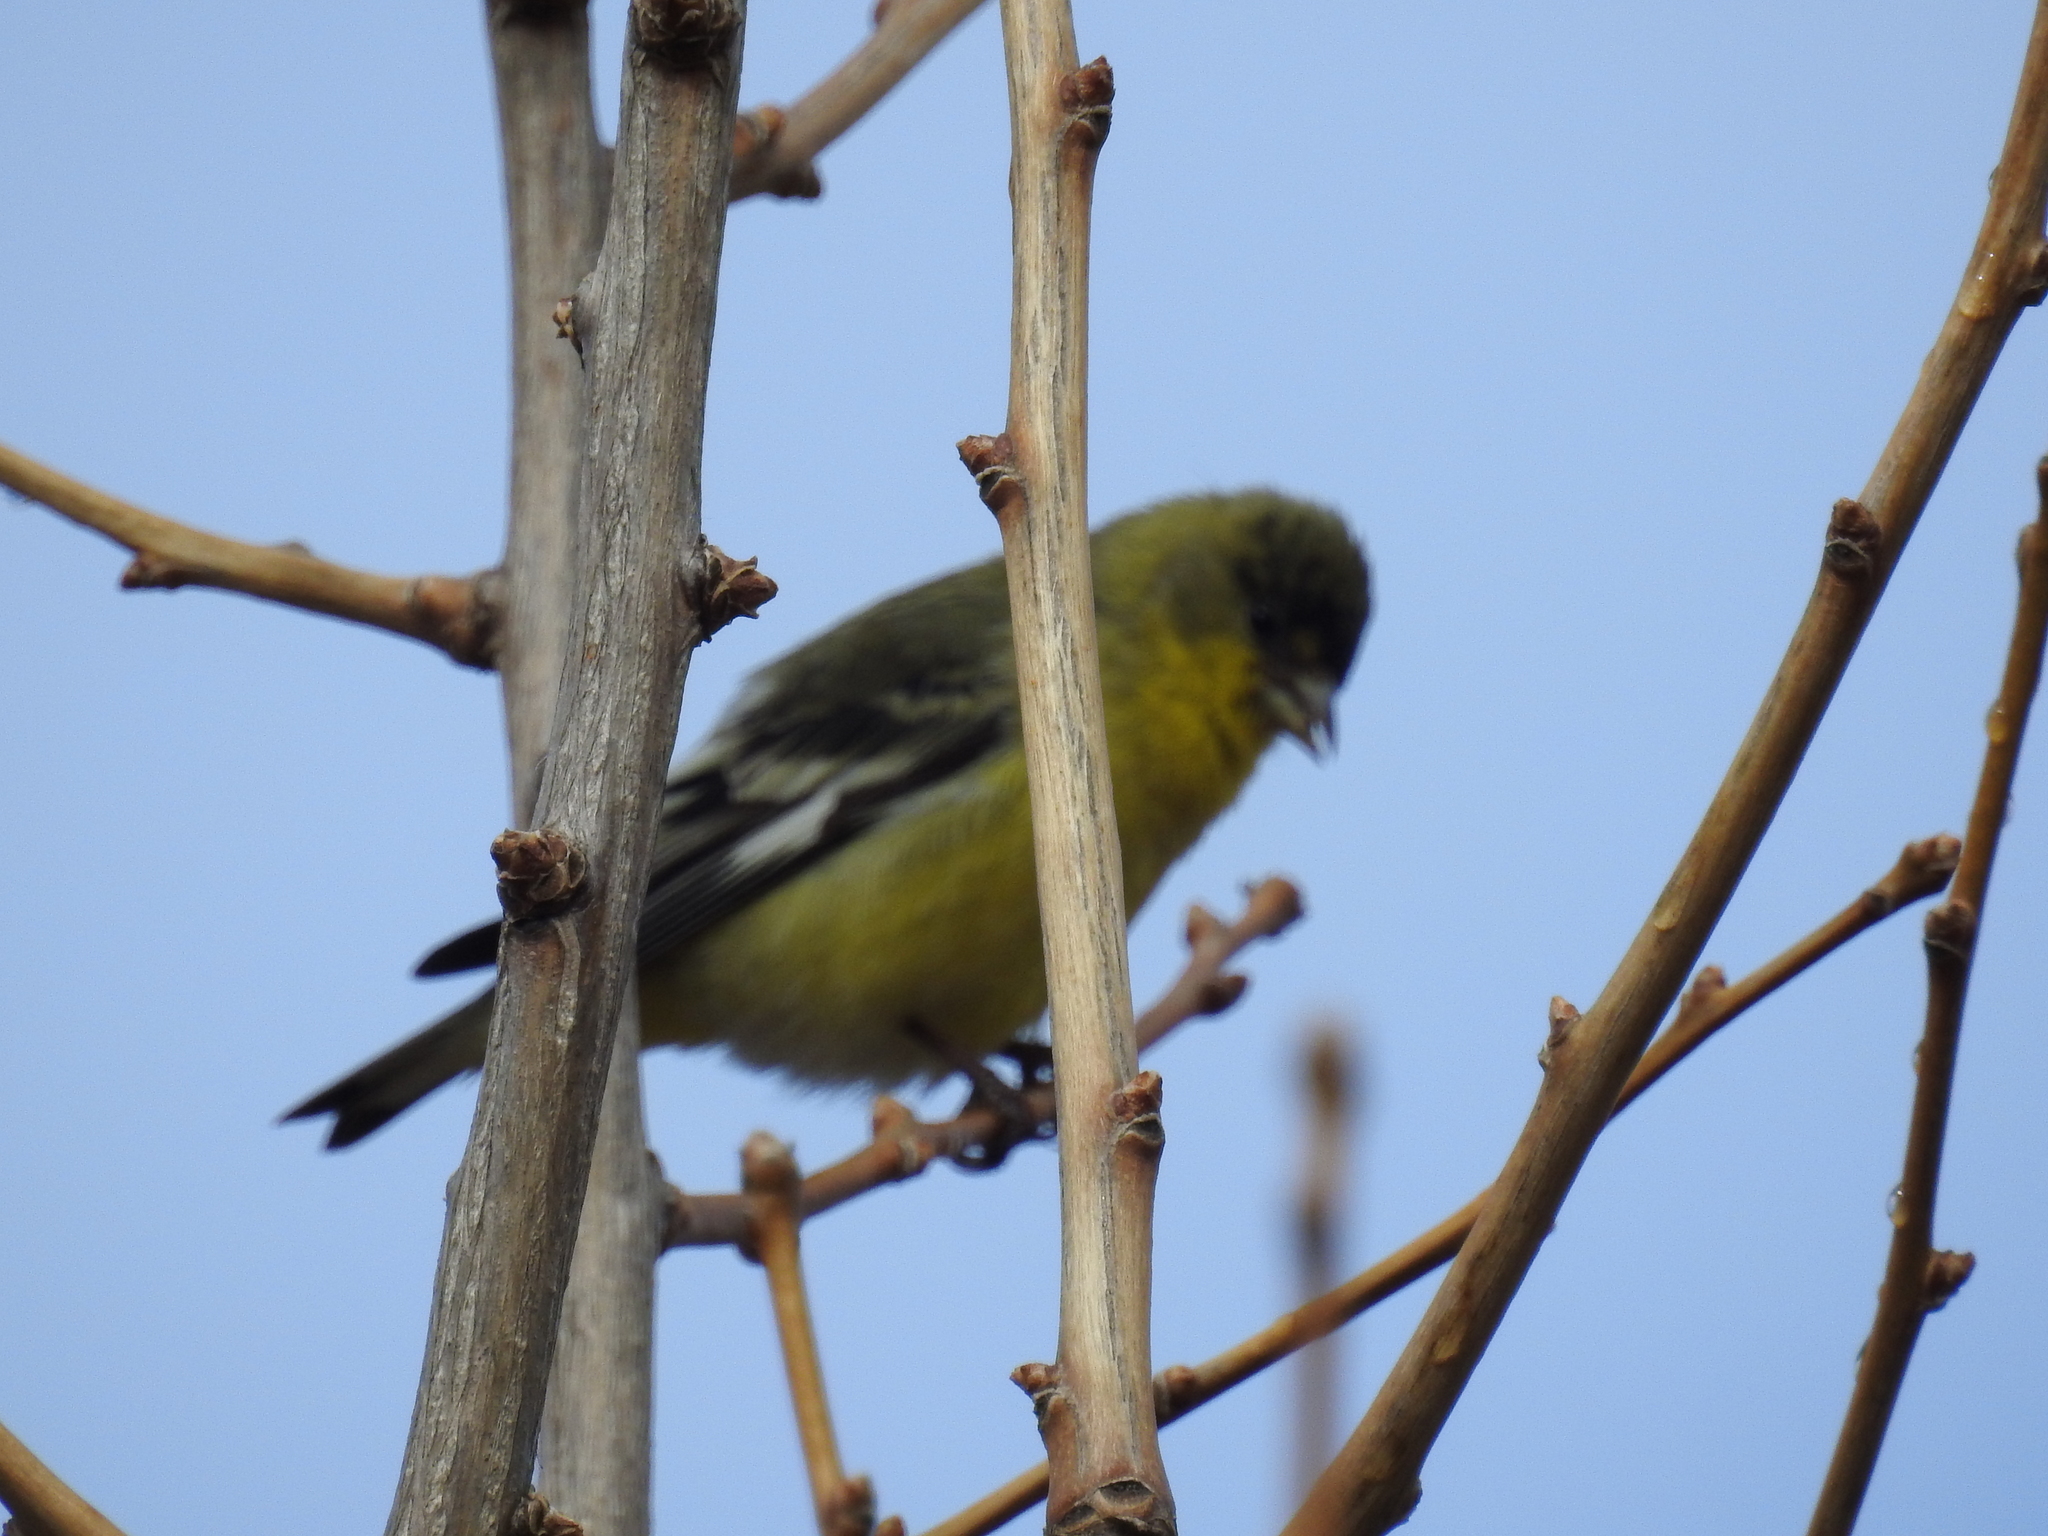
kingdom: Animalia
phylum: Chordata
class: Aves
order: Passeriformes
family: Fringillidae
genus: Spinus
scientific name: Spinus psaltria
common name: Lesser goldfinch
